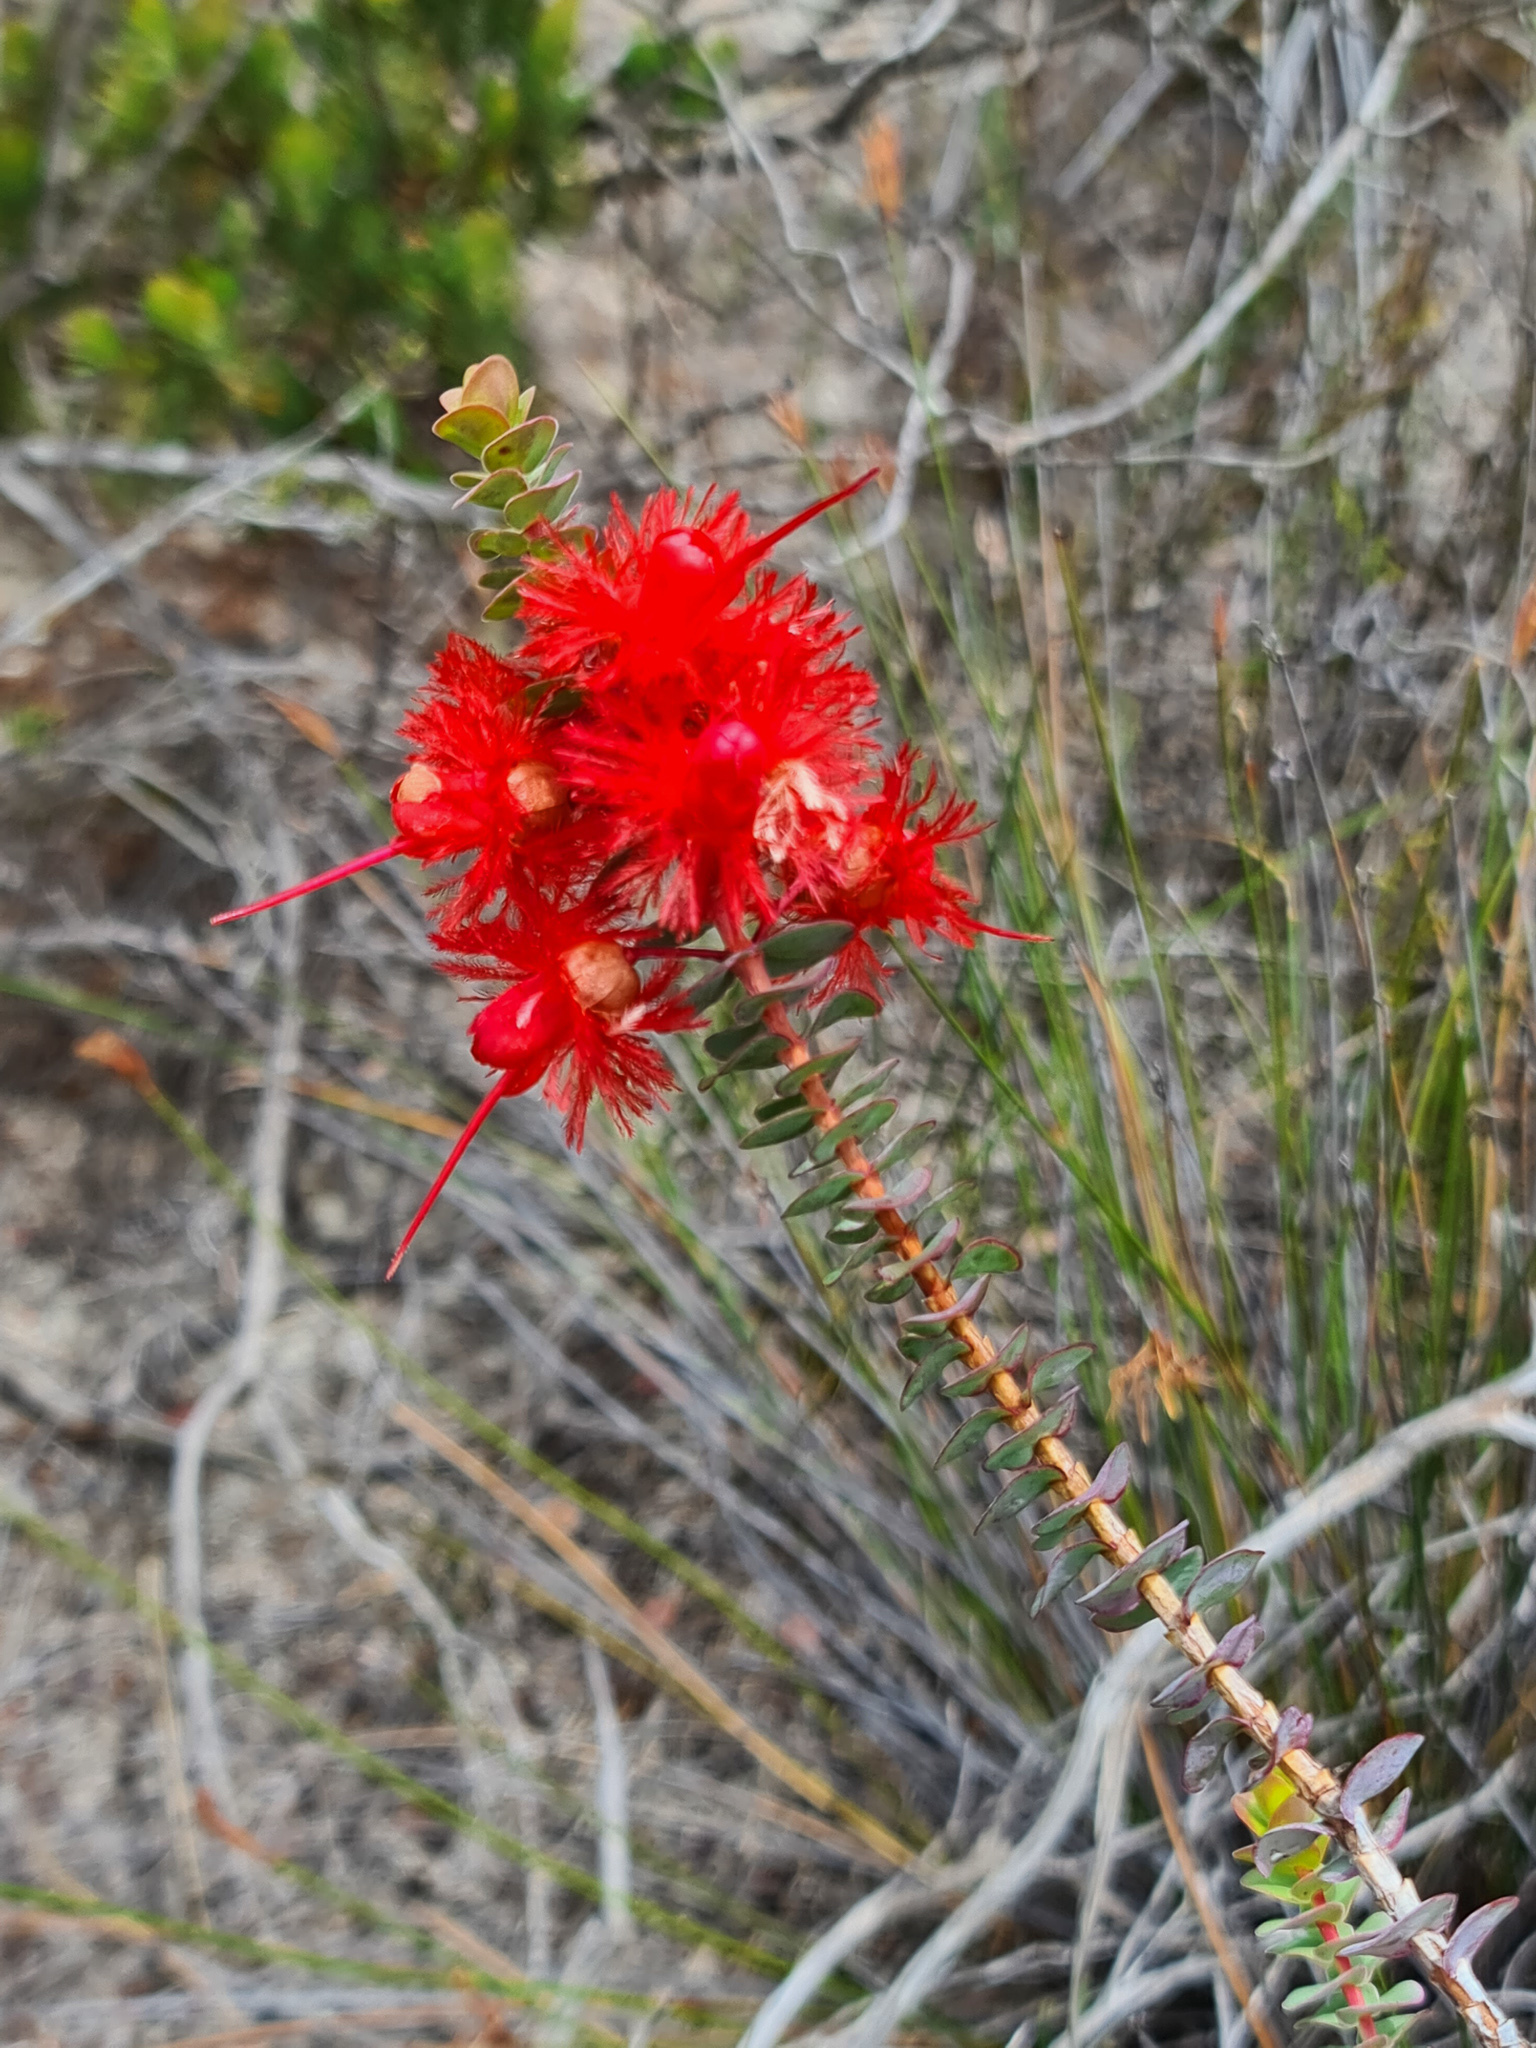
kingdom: Plantae
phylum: Tracheophyta
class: Magnoliopsida
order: Myrtales
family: Myrtaceae
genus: Verticordia
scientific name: Verticordia grandis
